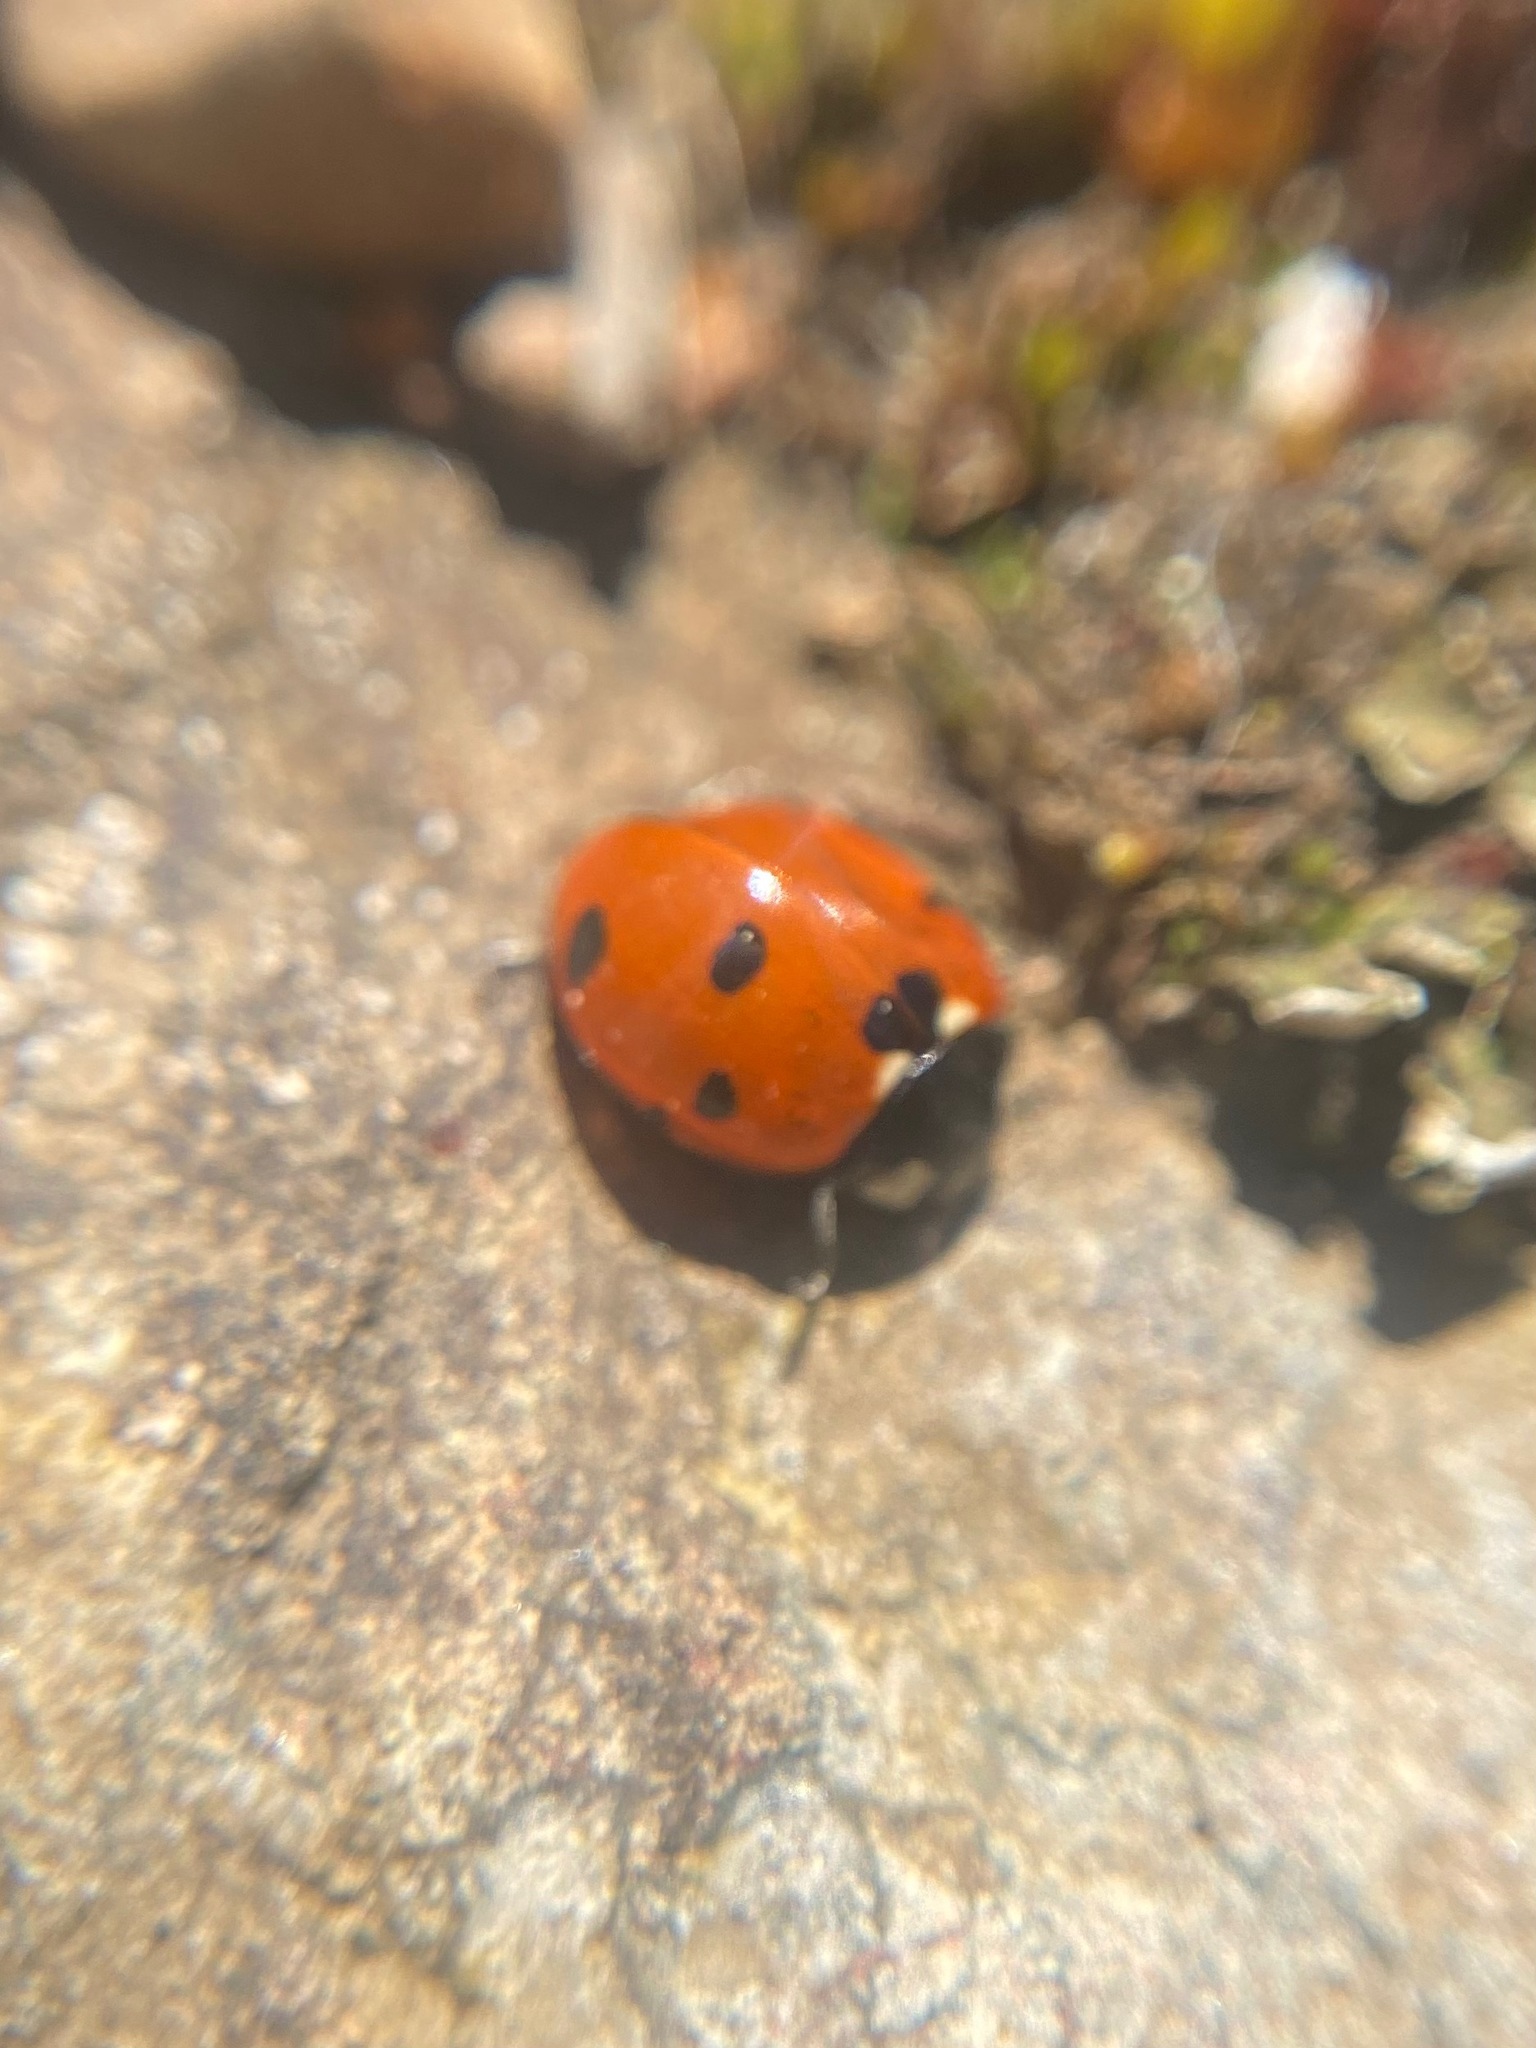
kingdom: Animalia
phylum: Arthropoda
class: Insecta
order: Coleoptera
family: Coccinellidae
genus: Coccinella
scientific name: Coccinella septempunctata
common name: Sevenspotted lady beetle
